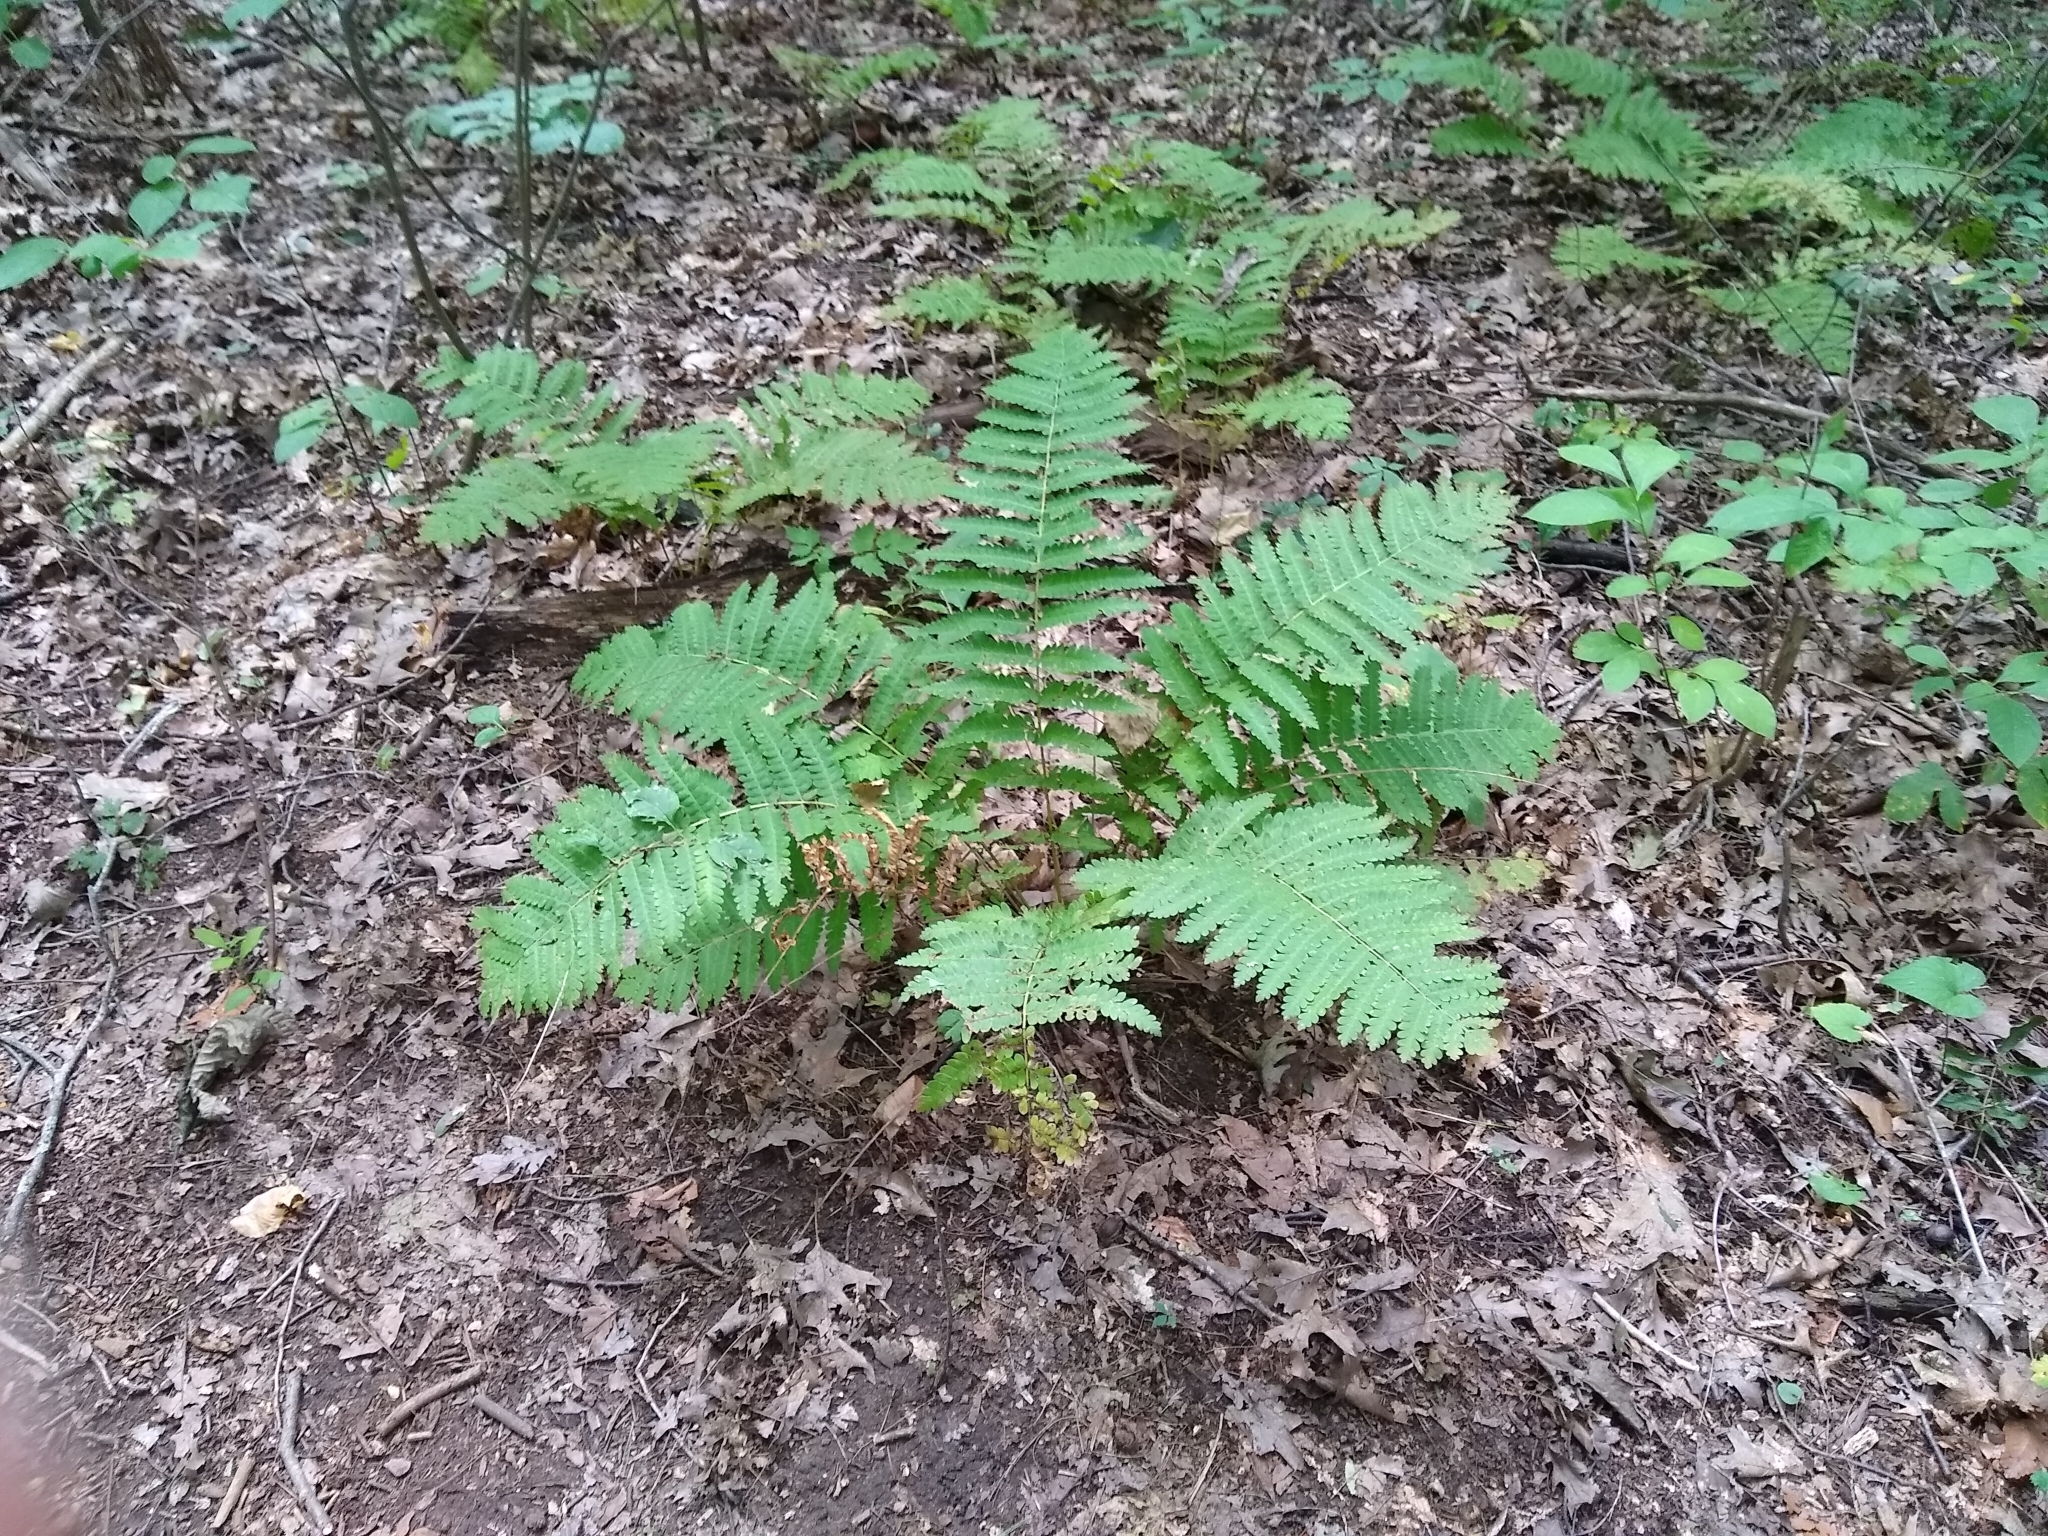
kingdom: Plantae
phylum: Tracheophyta
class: Polypodiopsida
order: Osmundales
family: Osmundaceae
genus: Claytosmunda
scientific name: Claytosmunda claytoniana
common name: Clayton's fern
